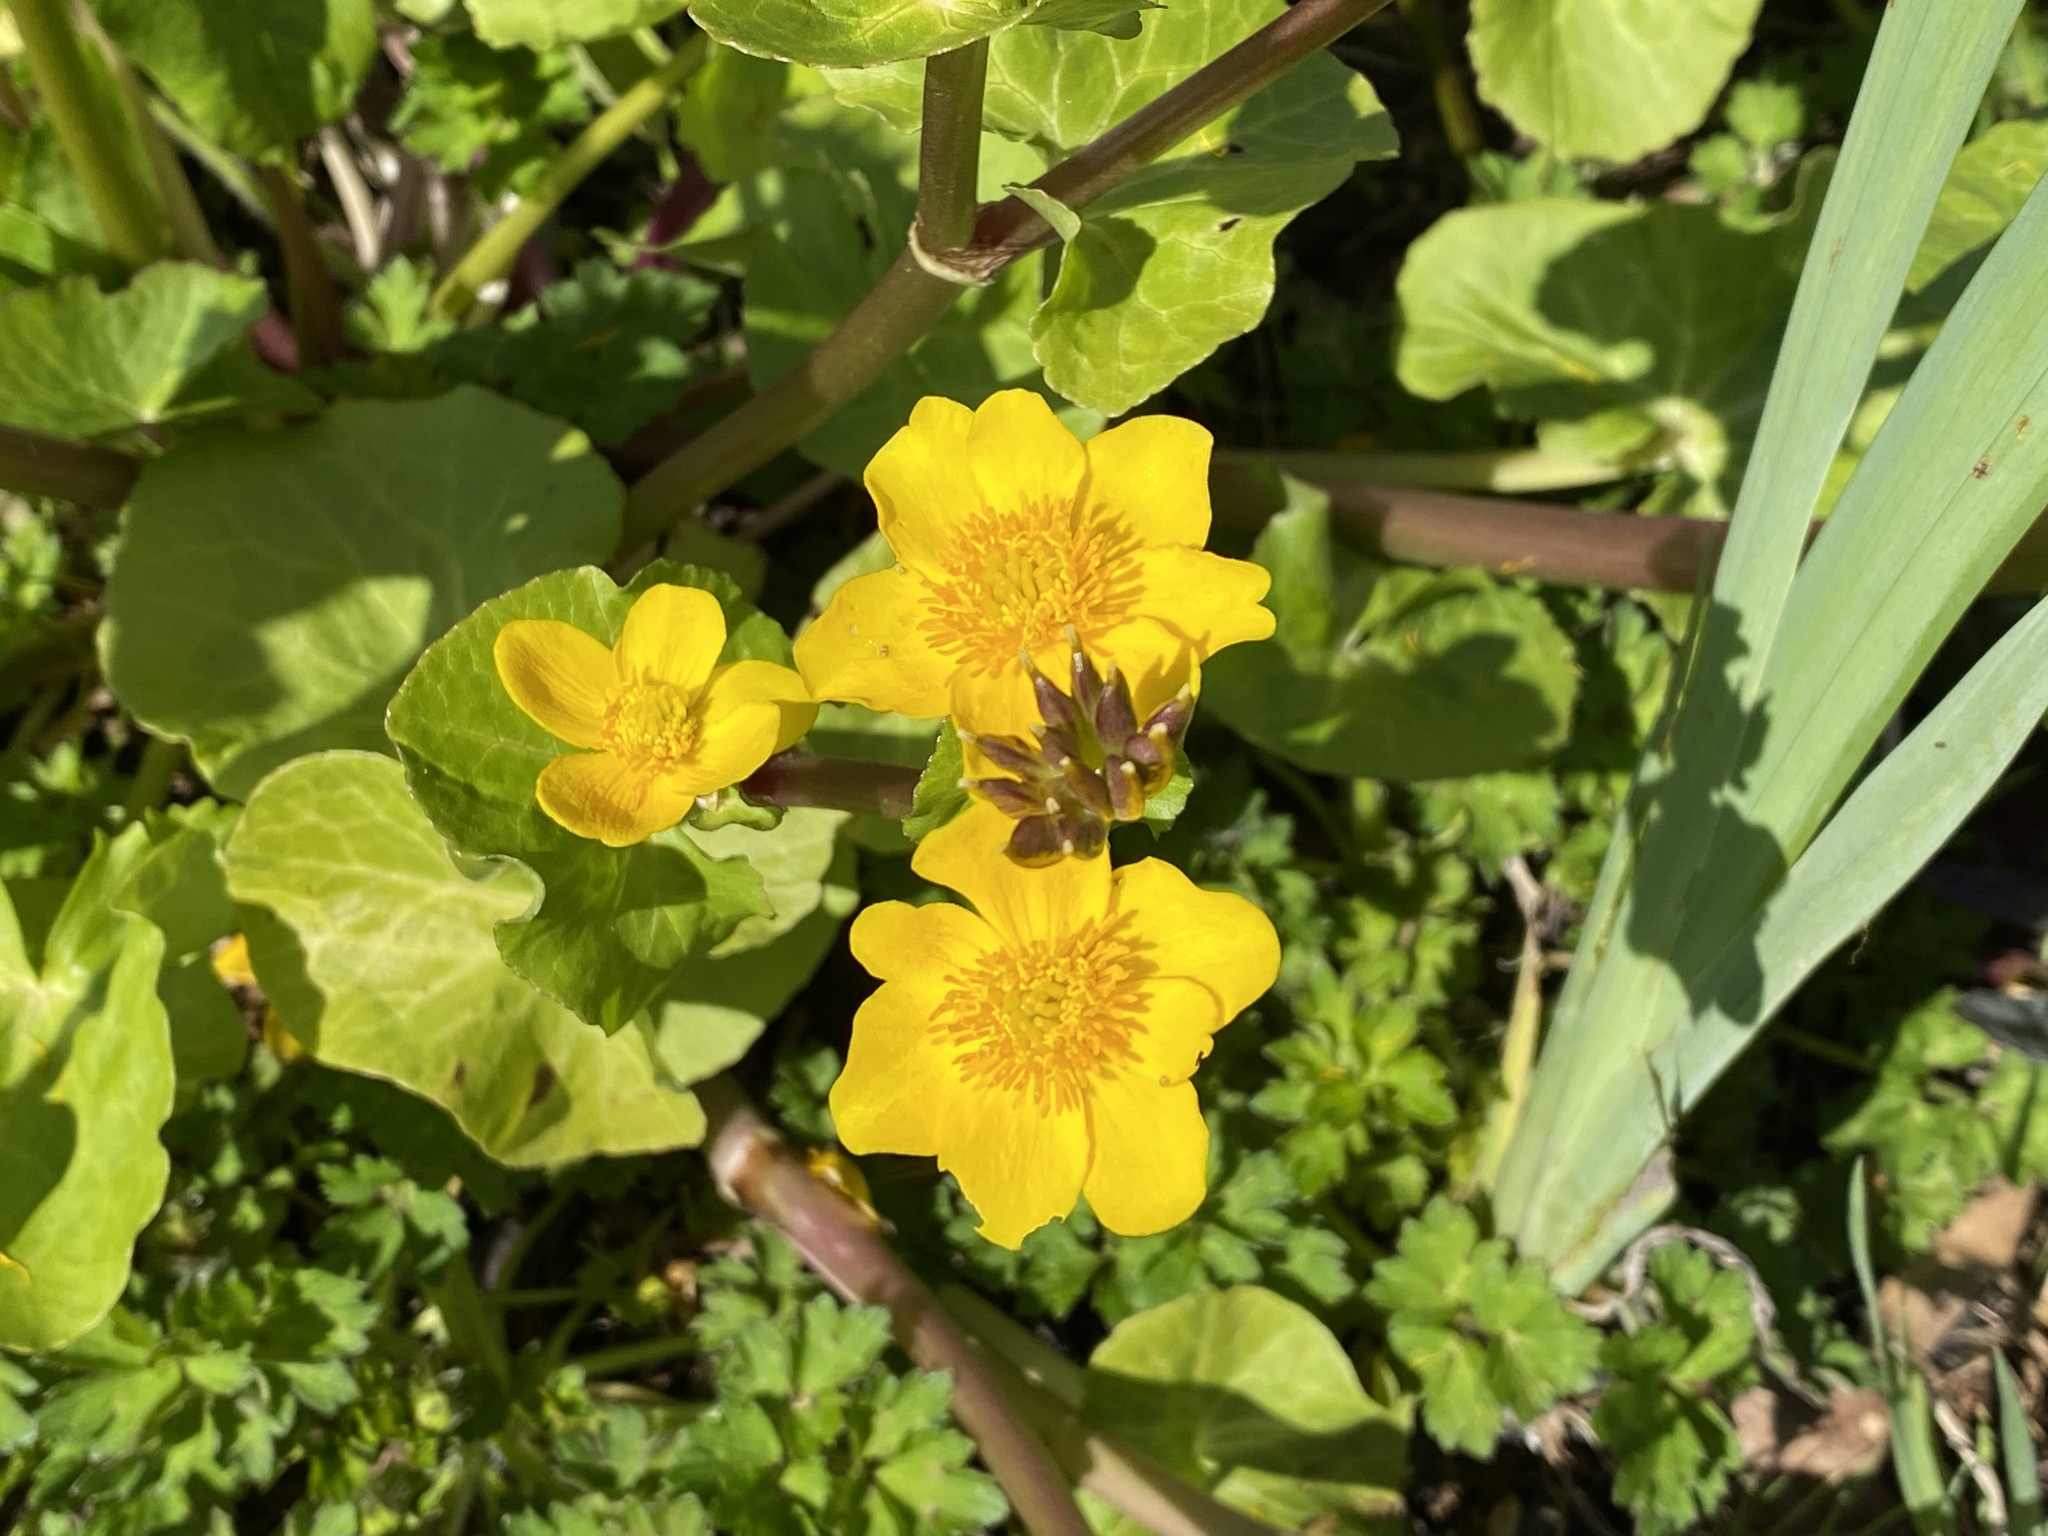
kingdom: Plantae
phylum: Tracheophyta
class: Magnoliopsida
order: Ranunculales
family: Ranunculaceae
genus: Caltha
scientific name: Caltha palustris
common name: Marsh marigold
